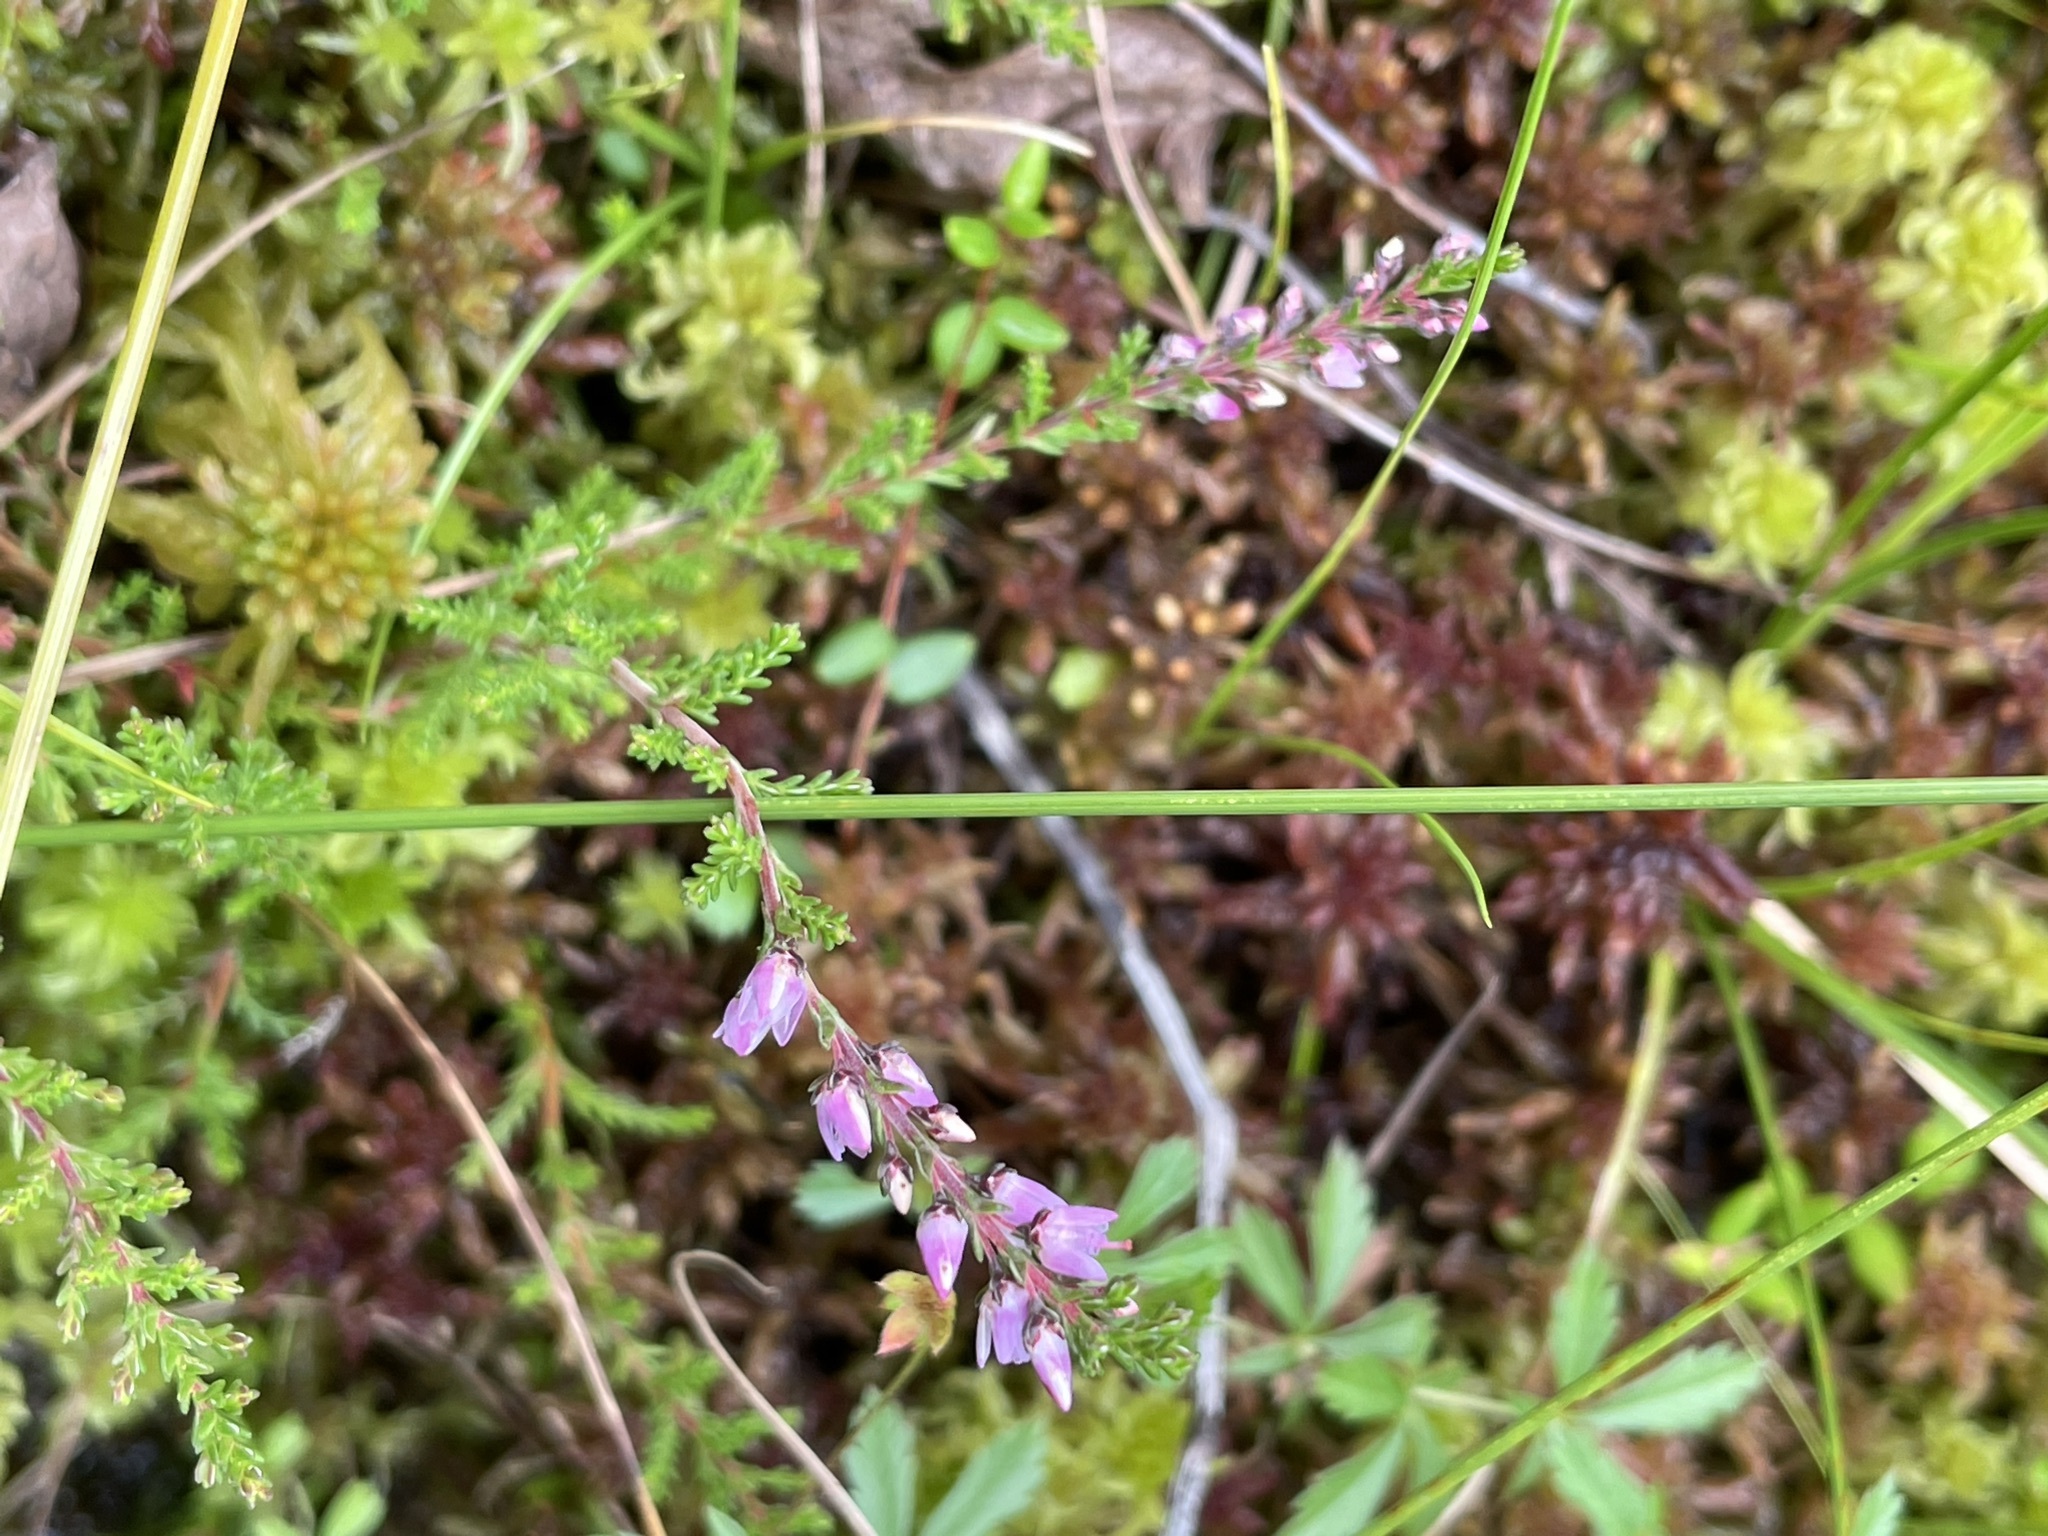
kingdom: Plantae
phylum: Tracheophyta
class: Magnoliopsida
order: Ericales
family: Ericaceae
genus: Calluna
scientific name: Calluna vulgaris
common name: Heather
